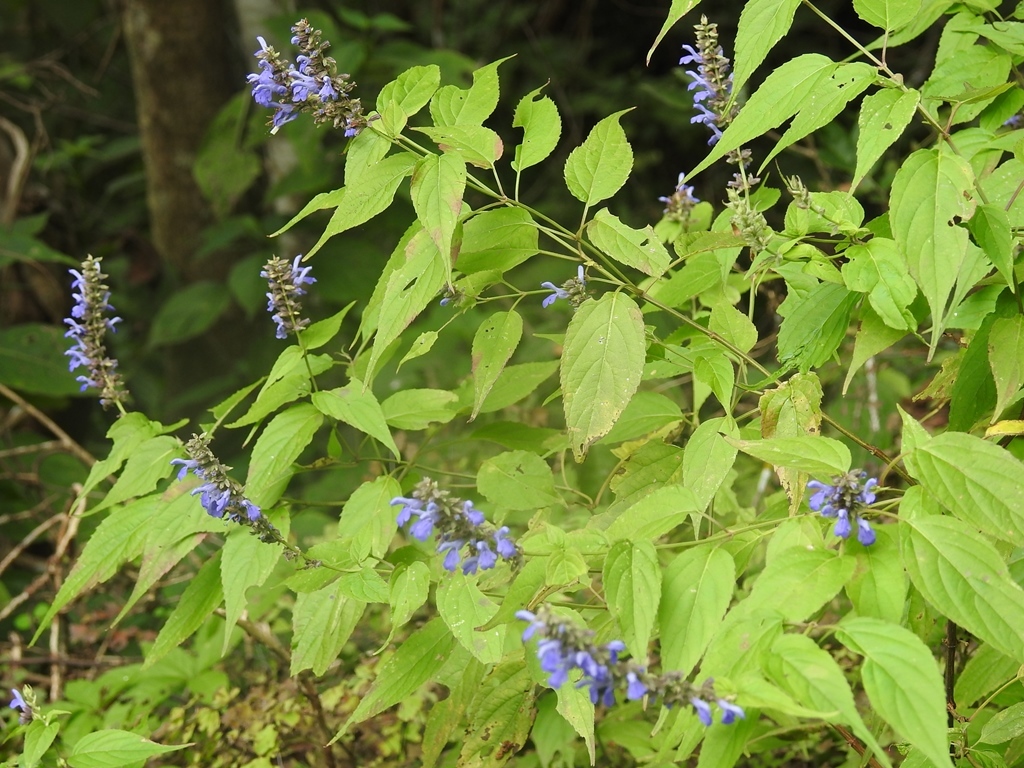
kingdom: Plantae
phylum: Tracheophyta
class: Magnoliopsida
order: Lamiales
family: Lamiaceae
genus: Salvia
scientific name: Salvia connivens
